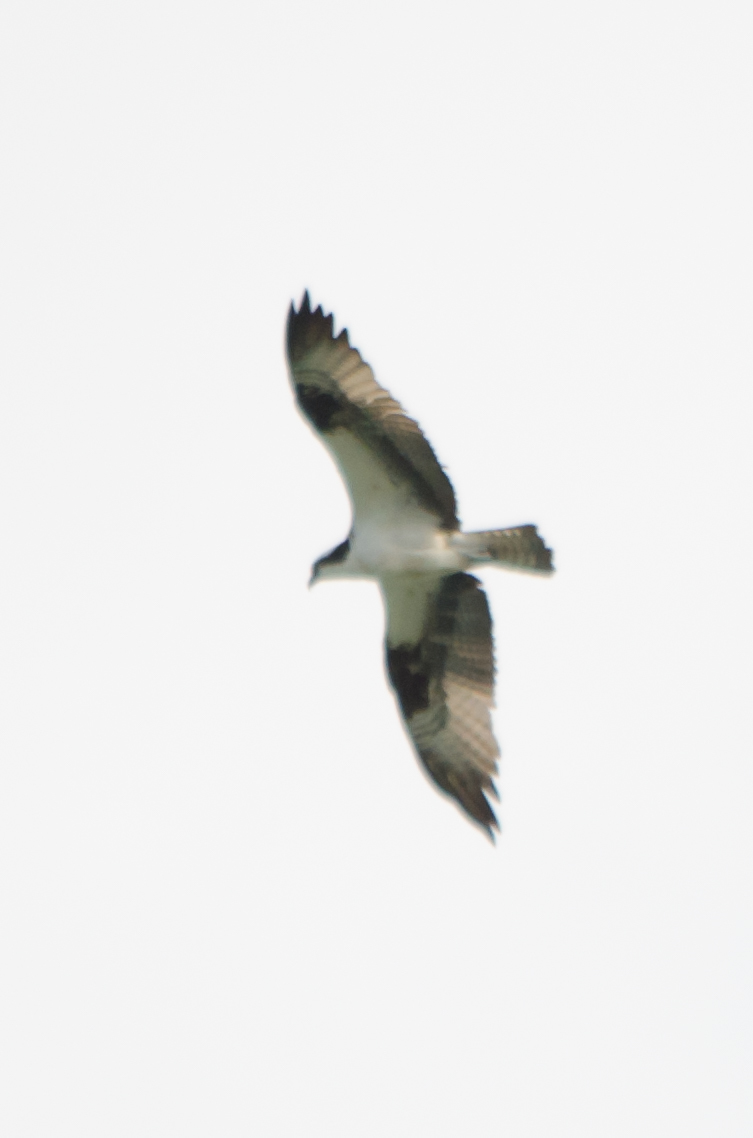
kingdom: Animalia
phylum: Chordata
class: Aves
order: Accipitriformes
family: Pandionidae
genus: Pandion
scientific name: Pandion haliaetus
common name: Osprey
